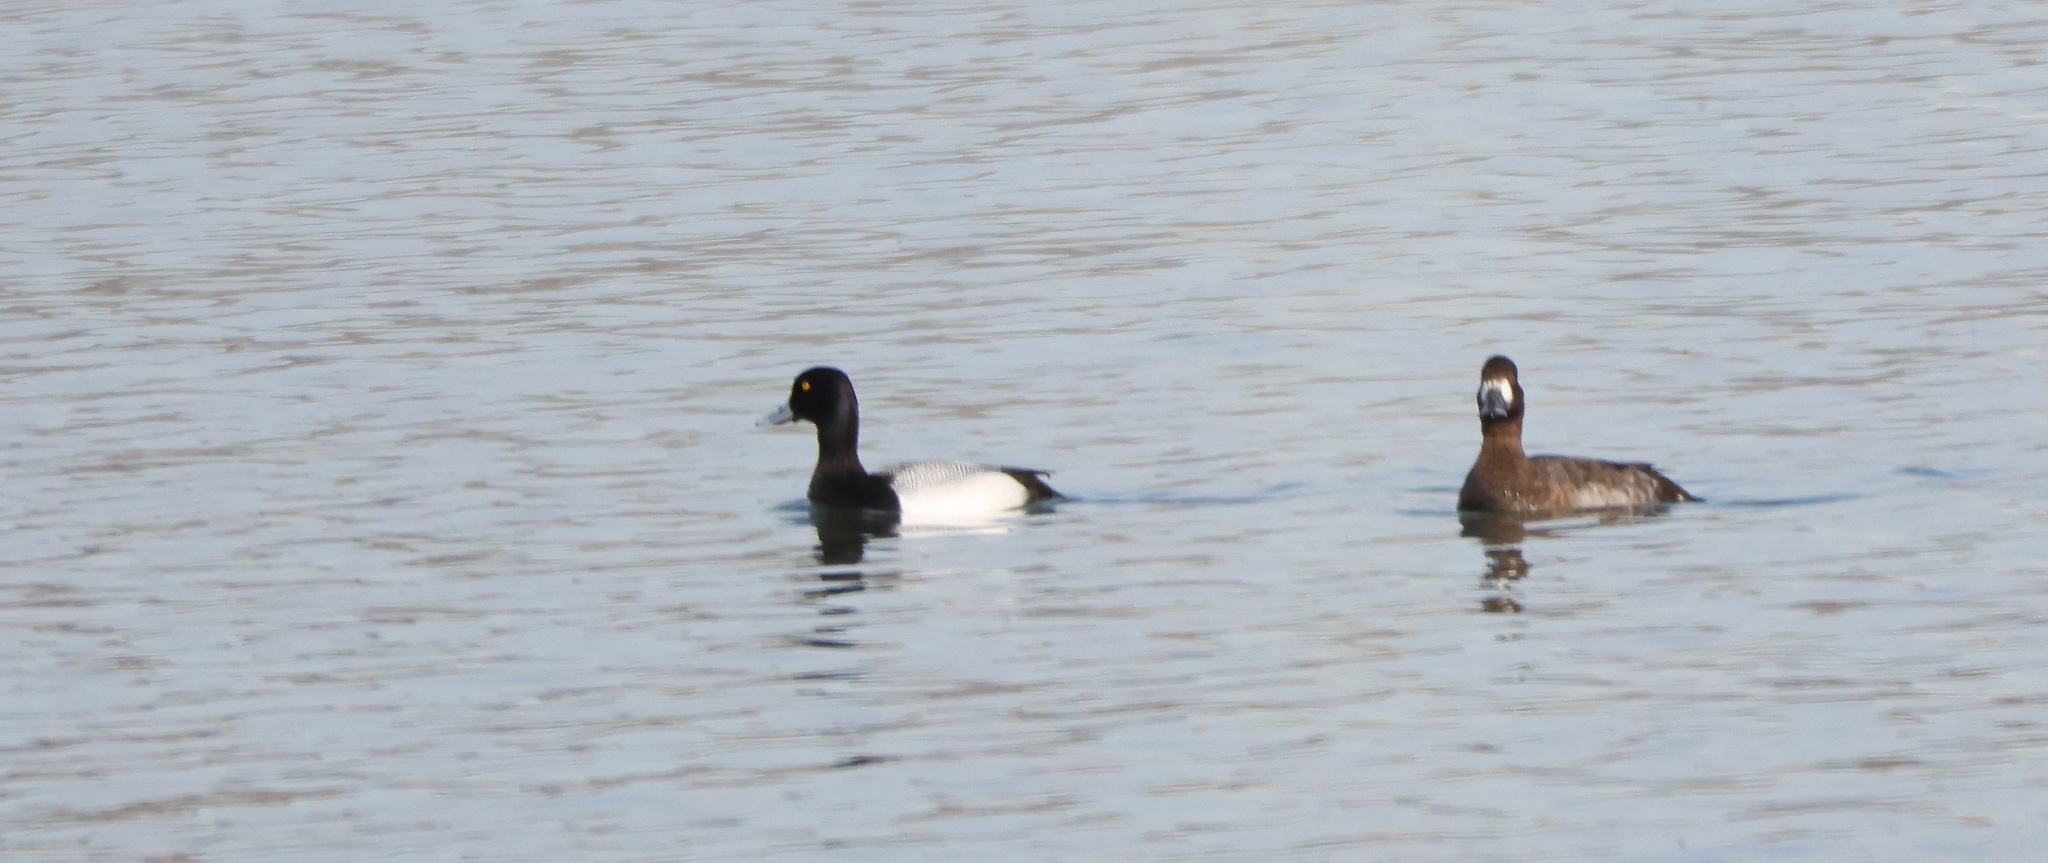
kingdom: Animalia
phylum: Chordata
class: Aves
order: Anseriformes
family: Anatidae
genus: Aythya
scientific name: Aythya affinis
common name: Lesser scaup
